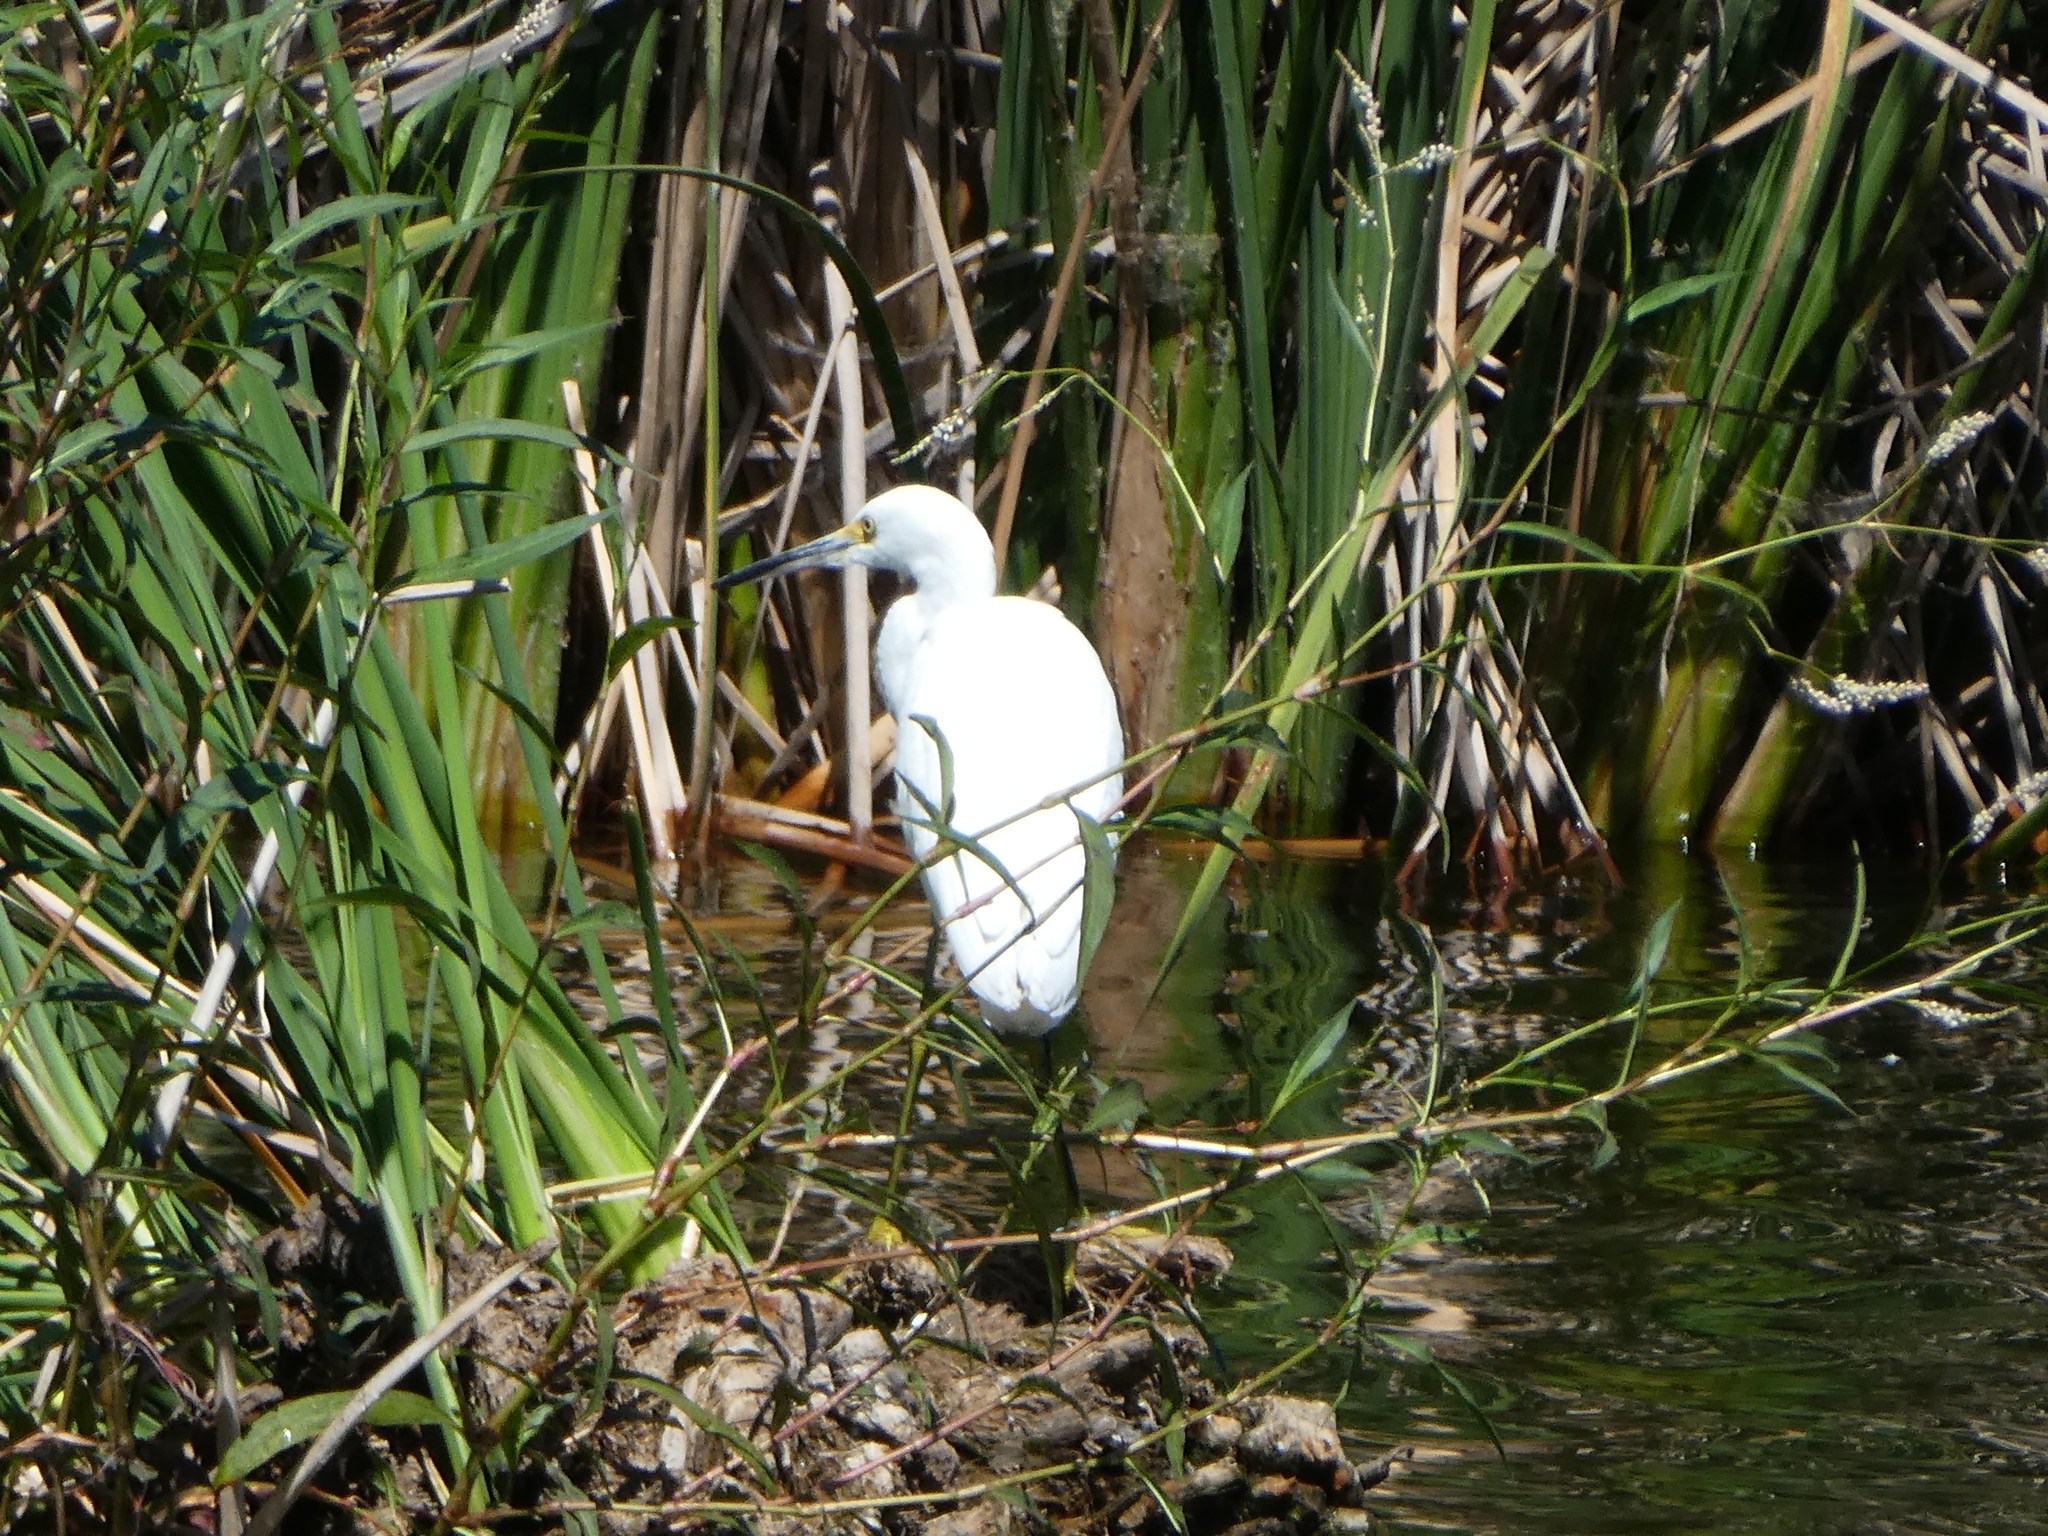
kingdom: Animalia
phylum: Chordata
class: Aves
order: Pelecaniformes
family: Ardeidae
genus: Egretta
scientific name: Egretta thula
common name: Snowy egret
